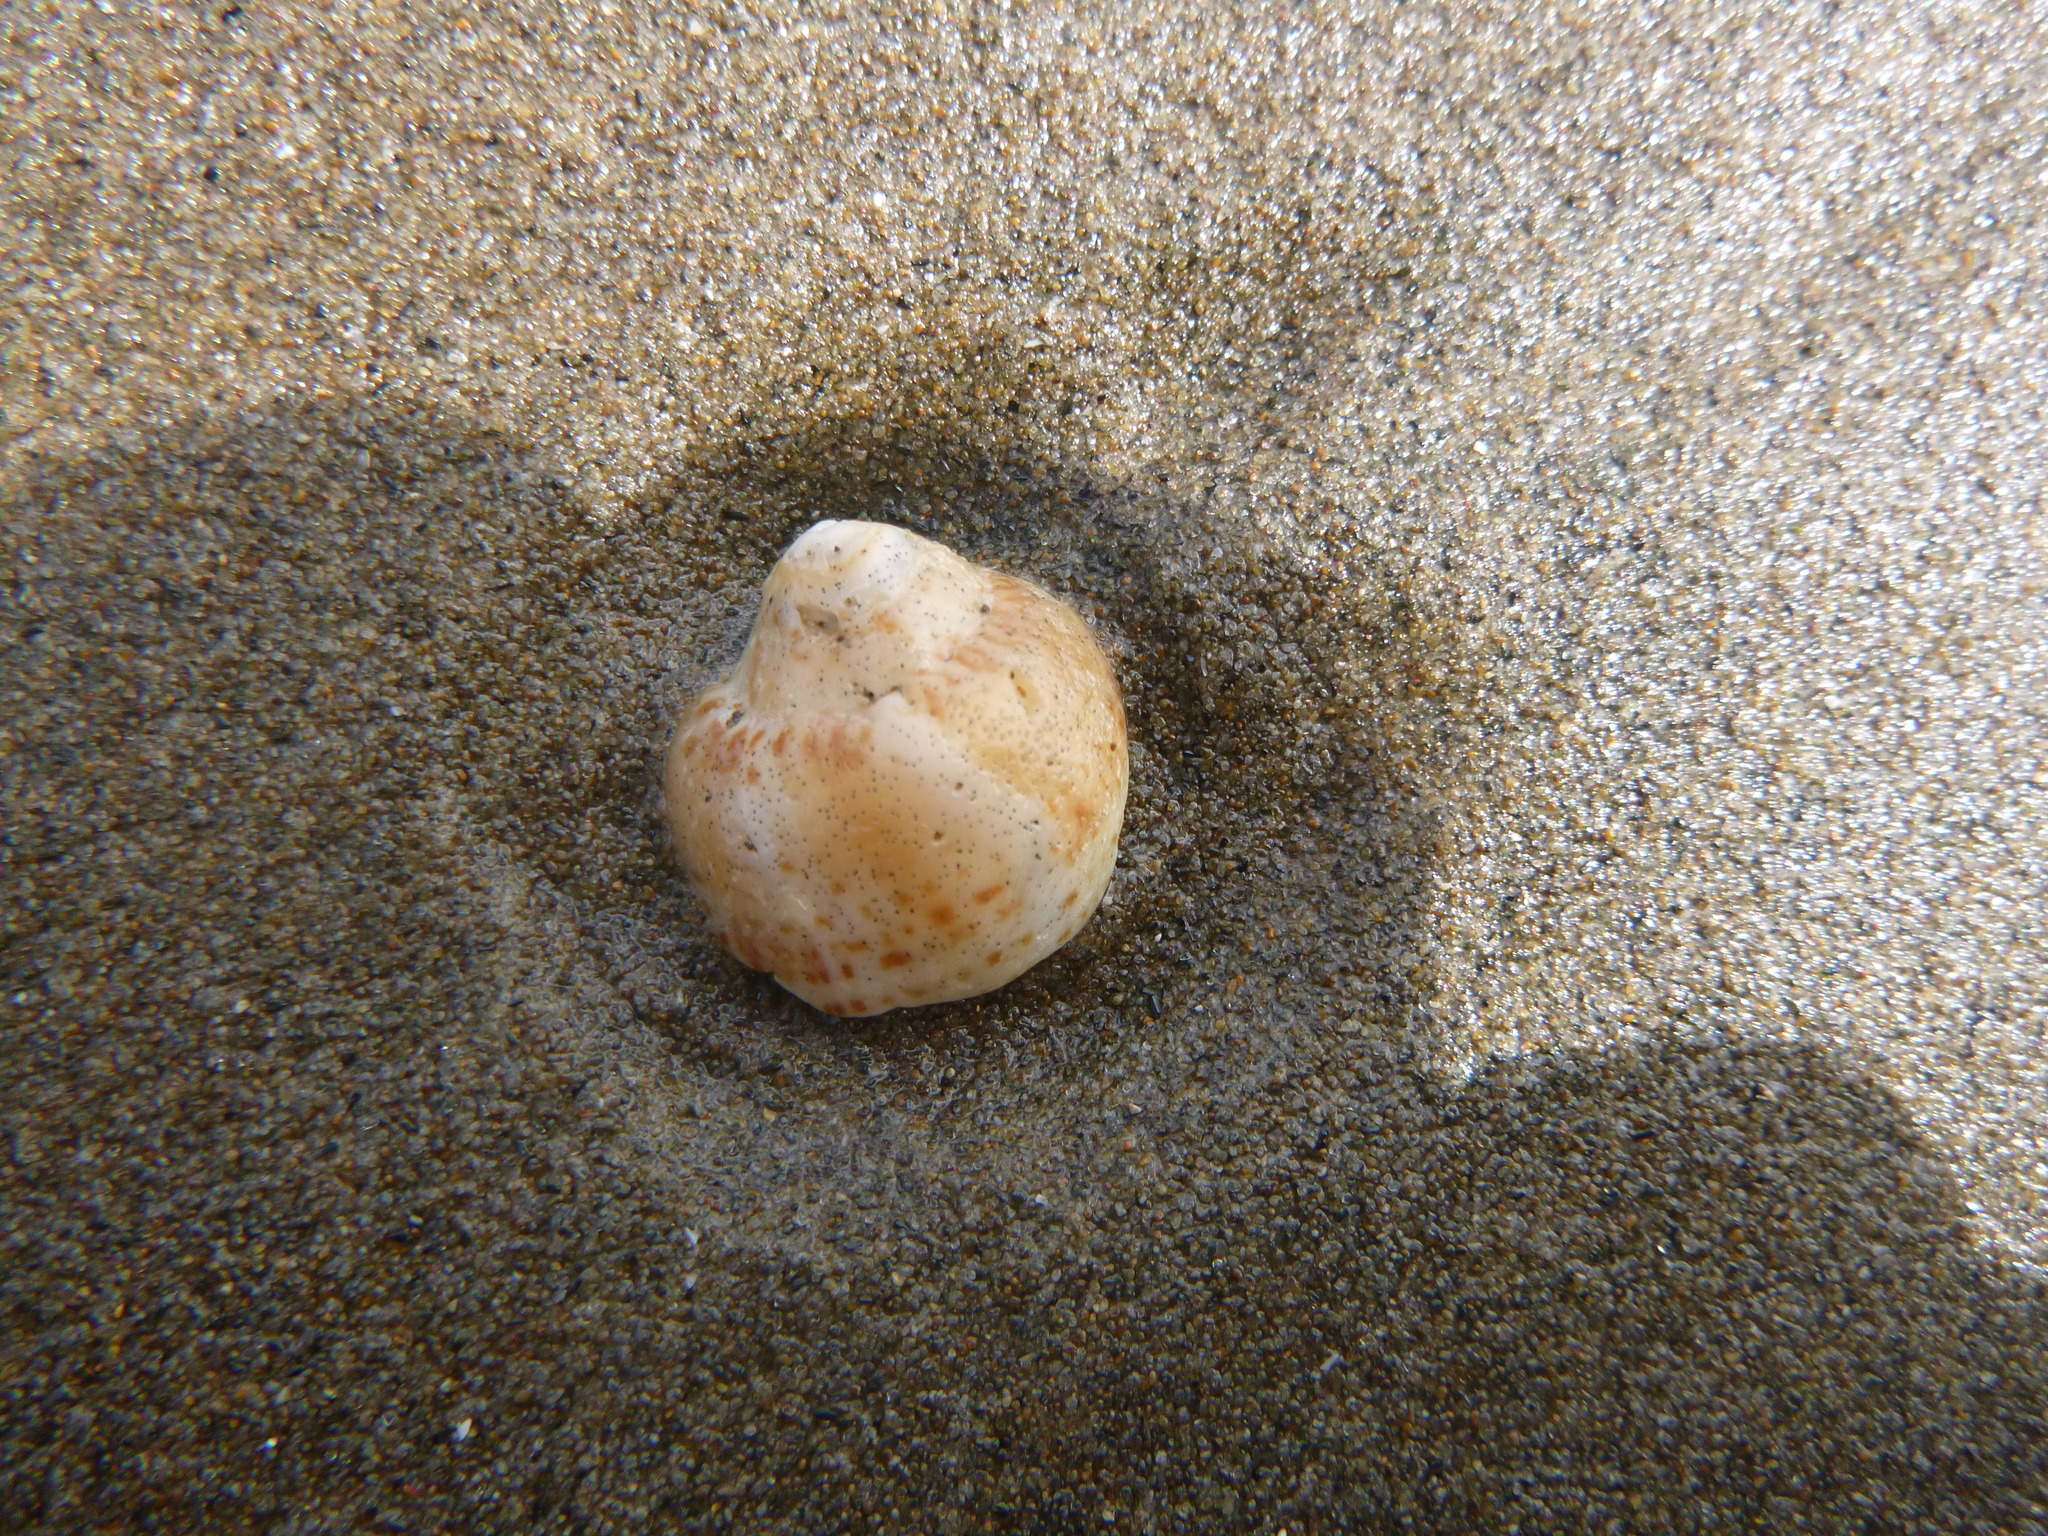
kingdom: Animalia
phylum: Mollusca
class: Gastropoda
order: Neogastropoda
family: Cominellidae
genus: Cominella
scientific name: Cominella adspersa
